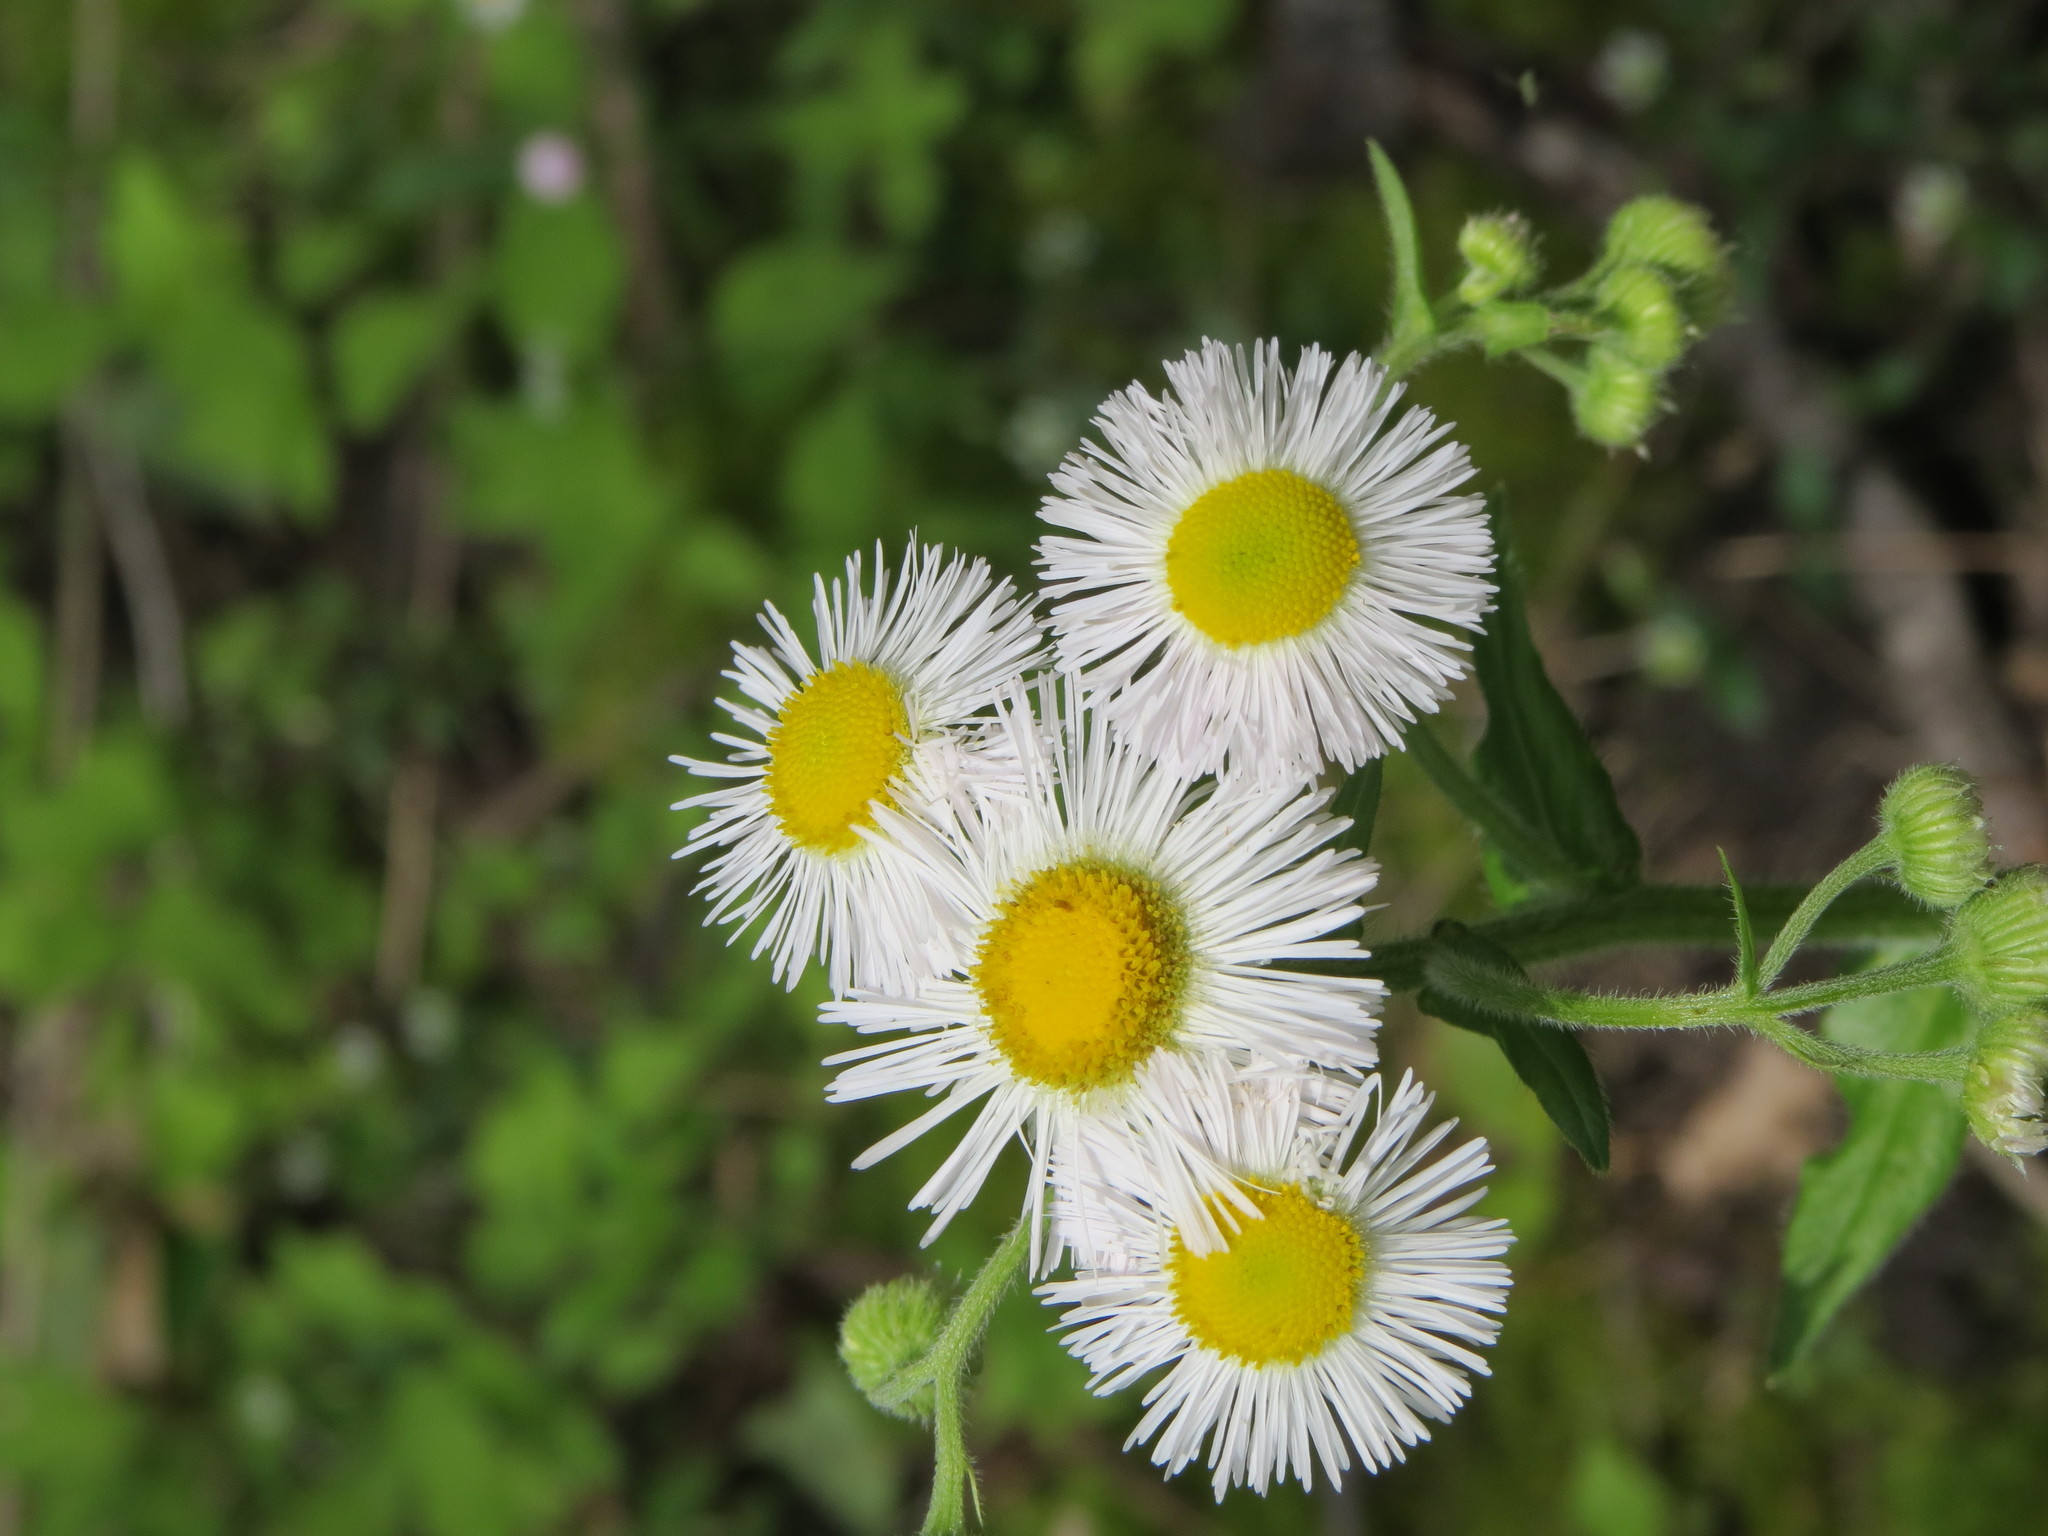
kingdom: Plantae
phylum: Tracheophyta
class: Magnoliopsida
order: Asterales
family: Asteraceae
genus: Erigeron
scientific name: Erigeron philadelphicus
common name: Robin's-plantain
